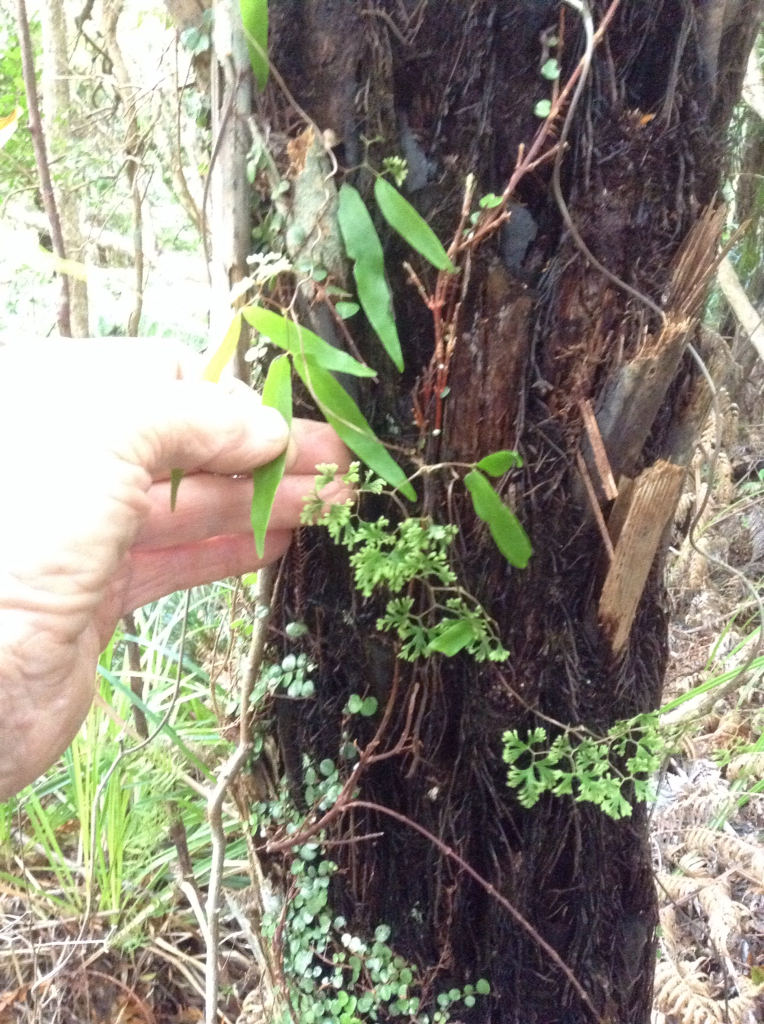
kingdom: Plantae
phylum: Tracheophyta
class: Polypodiopsida
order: Schizaeales
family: Lygodiaceae
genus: Lygodium
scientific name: Lygodium articulatum
